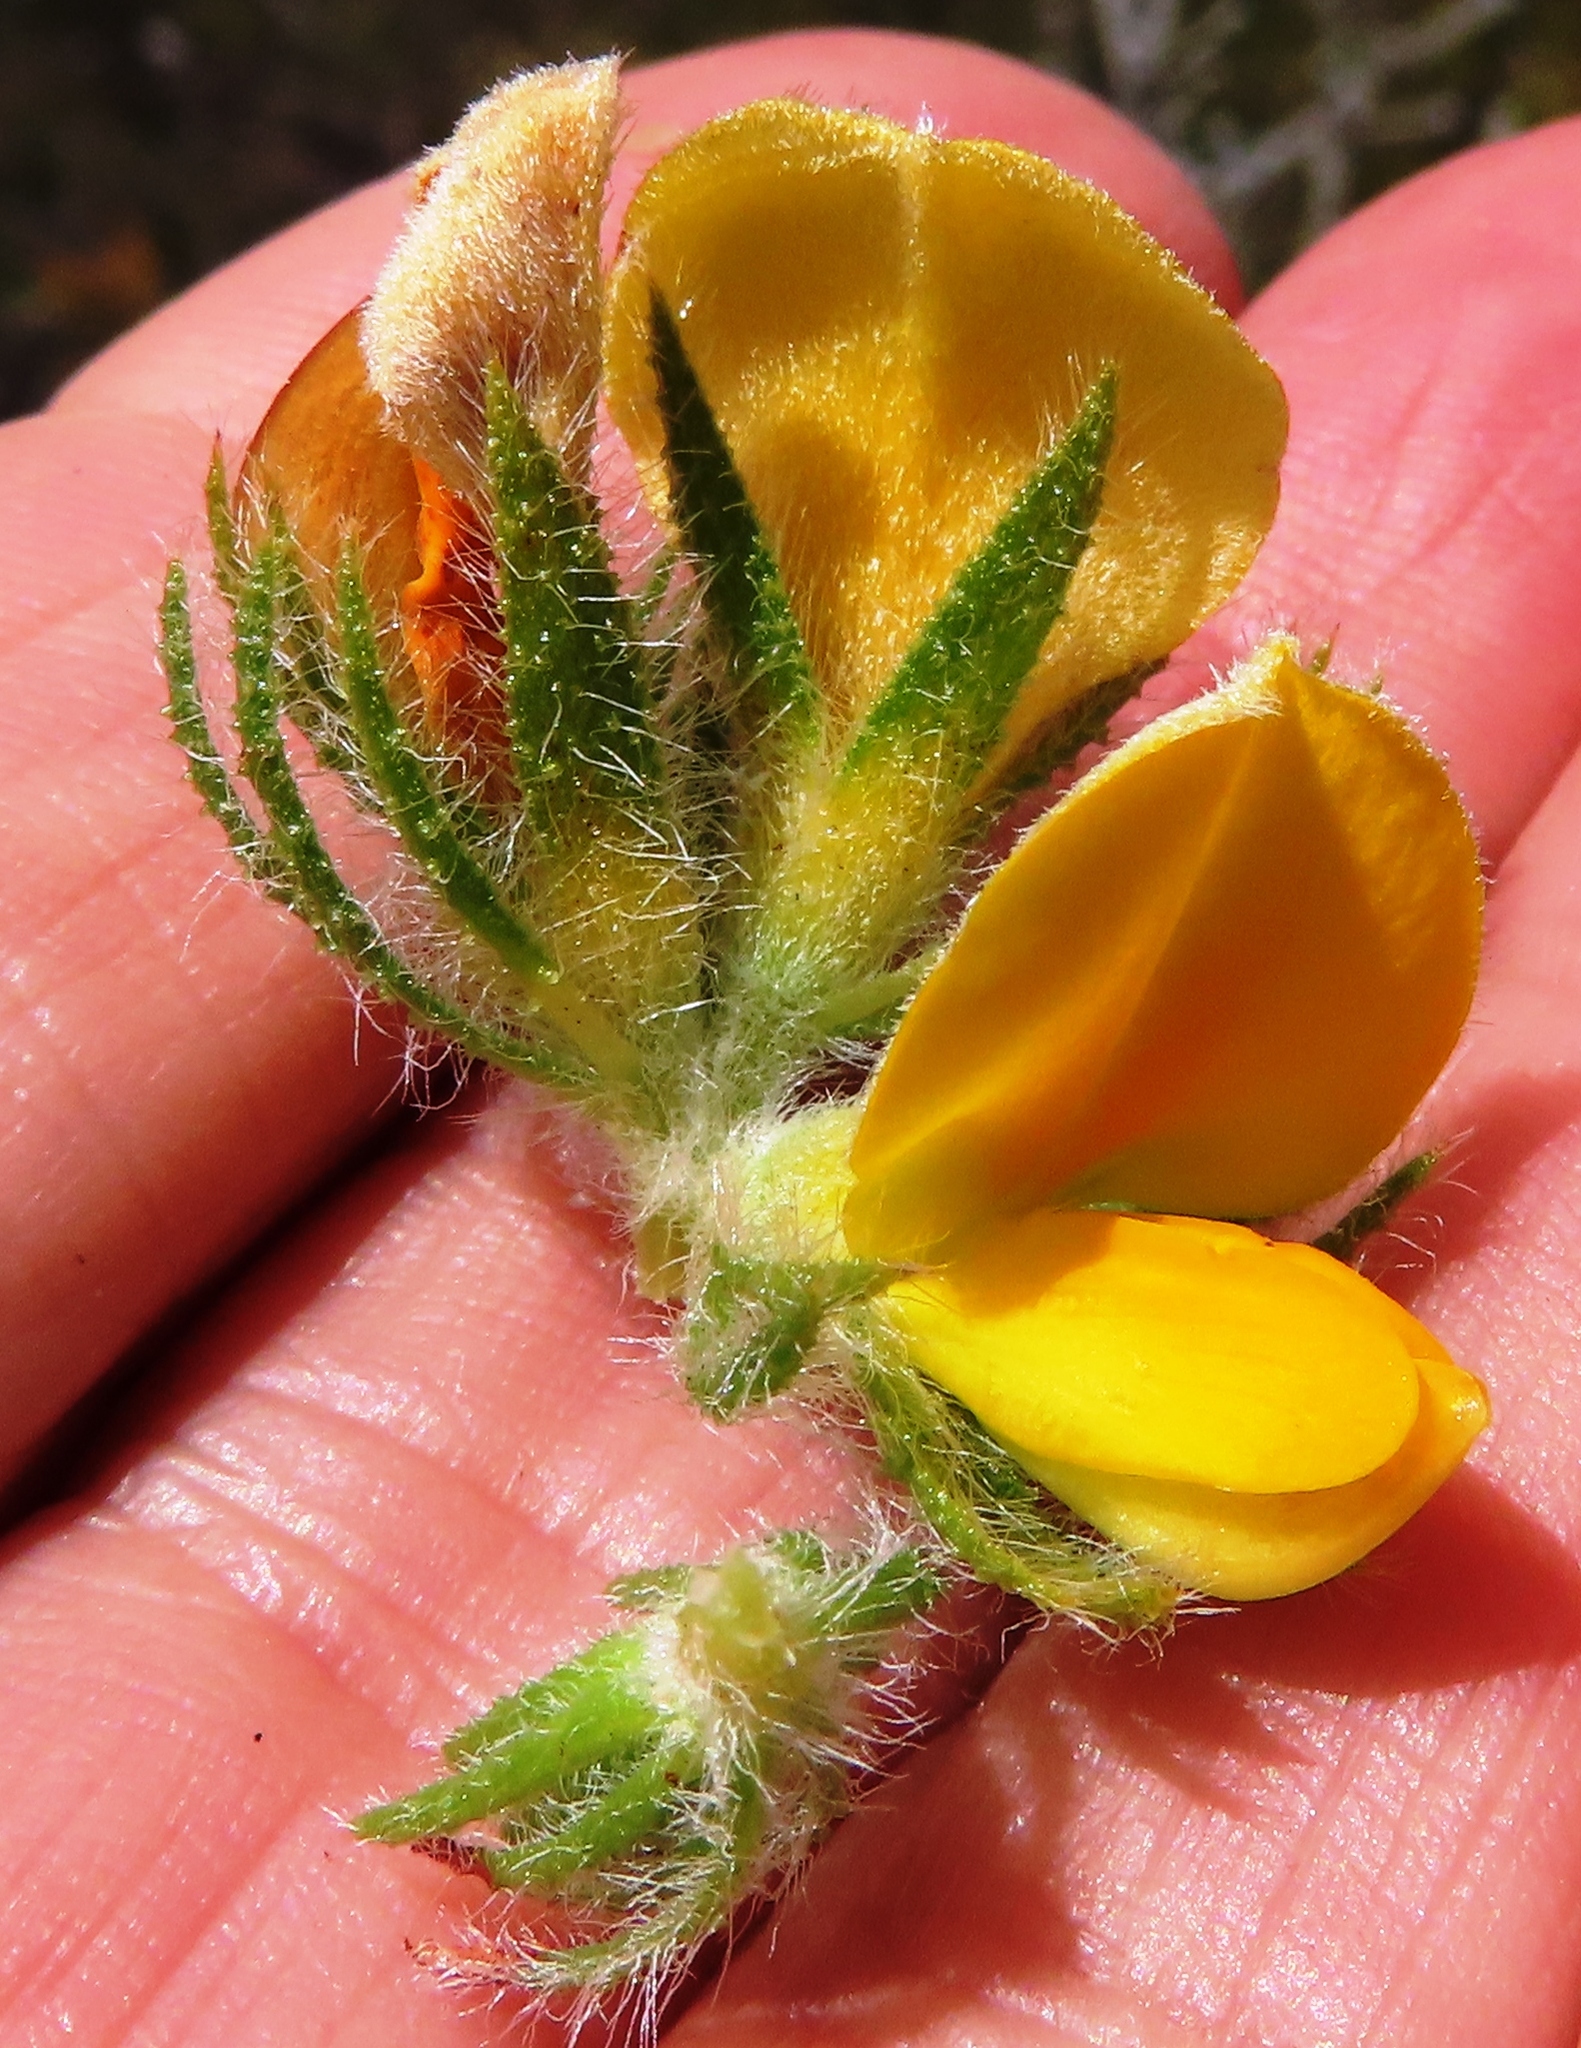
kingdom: Plantae
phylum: Tracheophyta
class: Magnoliopsida
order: Fabales
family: Fabaceae
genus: Aspalathus
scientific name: Aspalathus ciliaris
